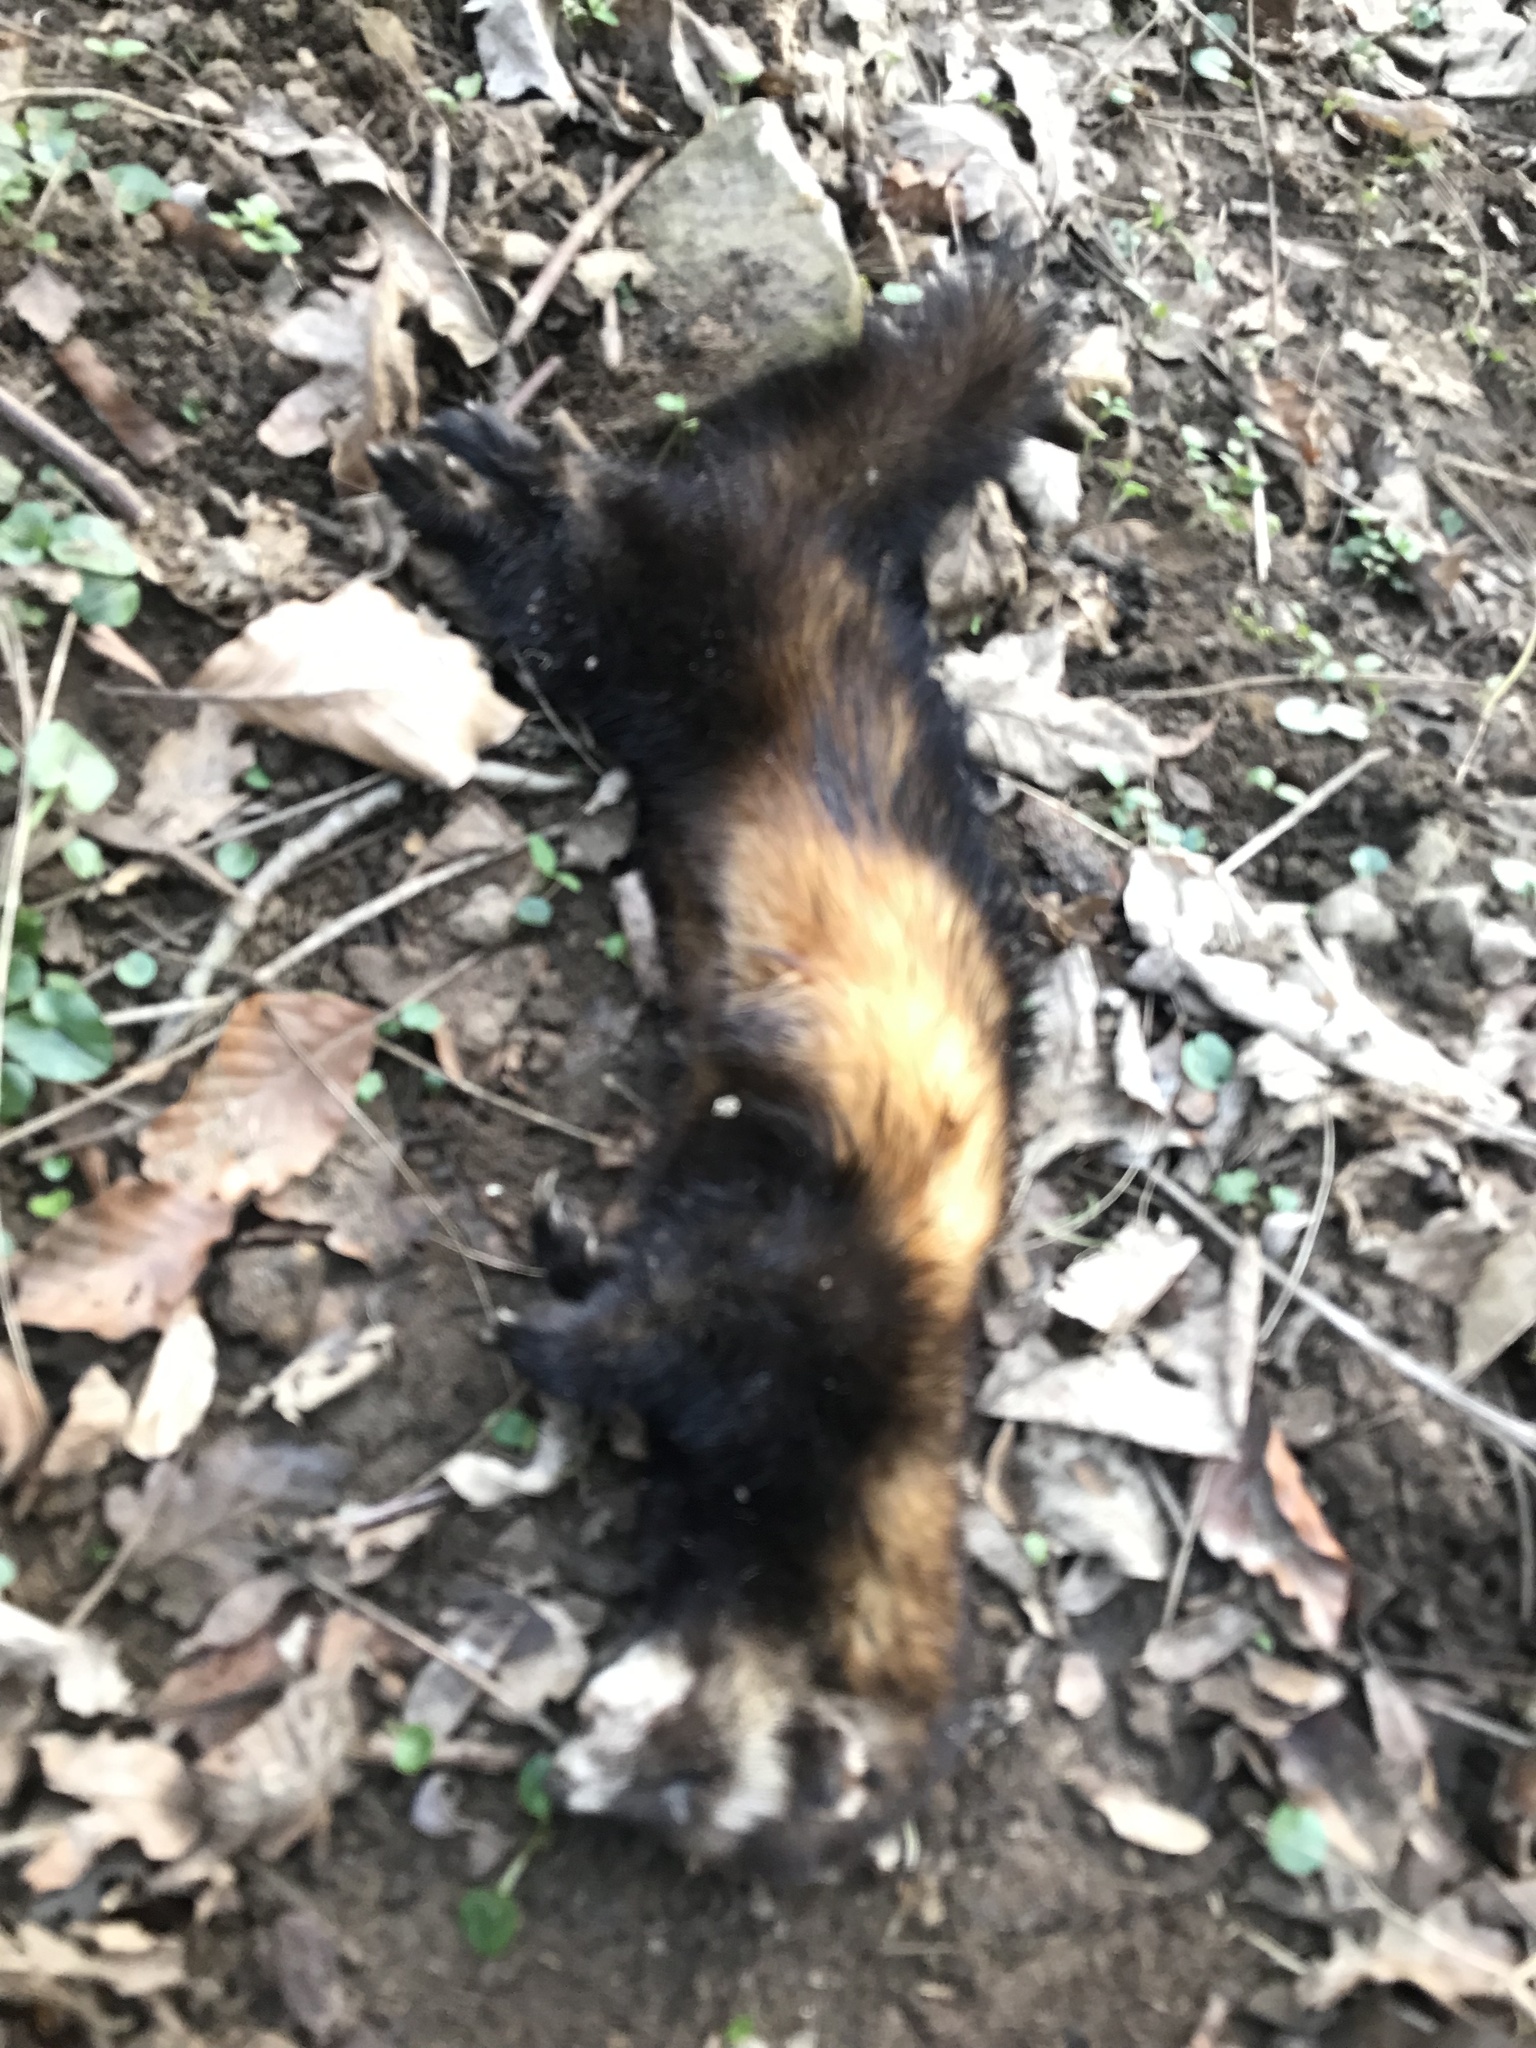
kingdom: Animalia
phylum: Chordata
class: Mammalia
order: Carnivora
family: Mustelidae
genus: Mustela
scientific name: Mustela putorius
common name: European polecat
